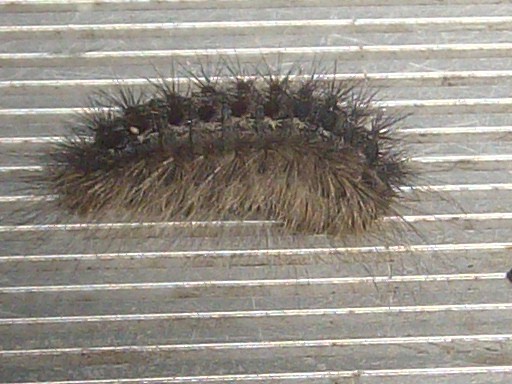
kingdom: Animalia
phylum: Arthropoda
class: Insecta
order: Lepidoptera
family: Erebidae
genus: Lymantria
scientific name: Lymantria dispar
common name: Gypsy moth
